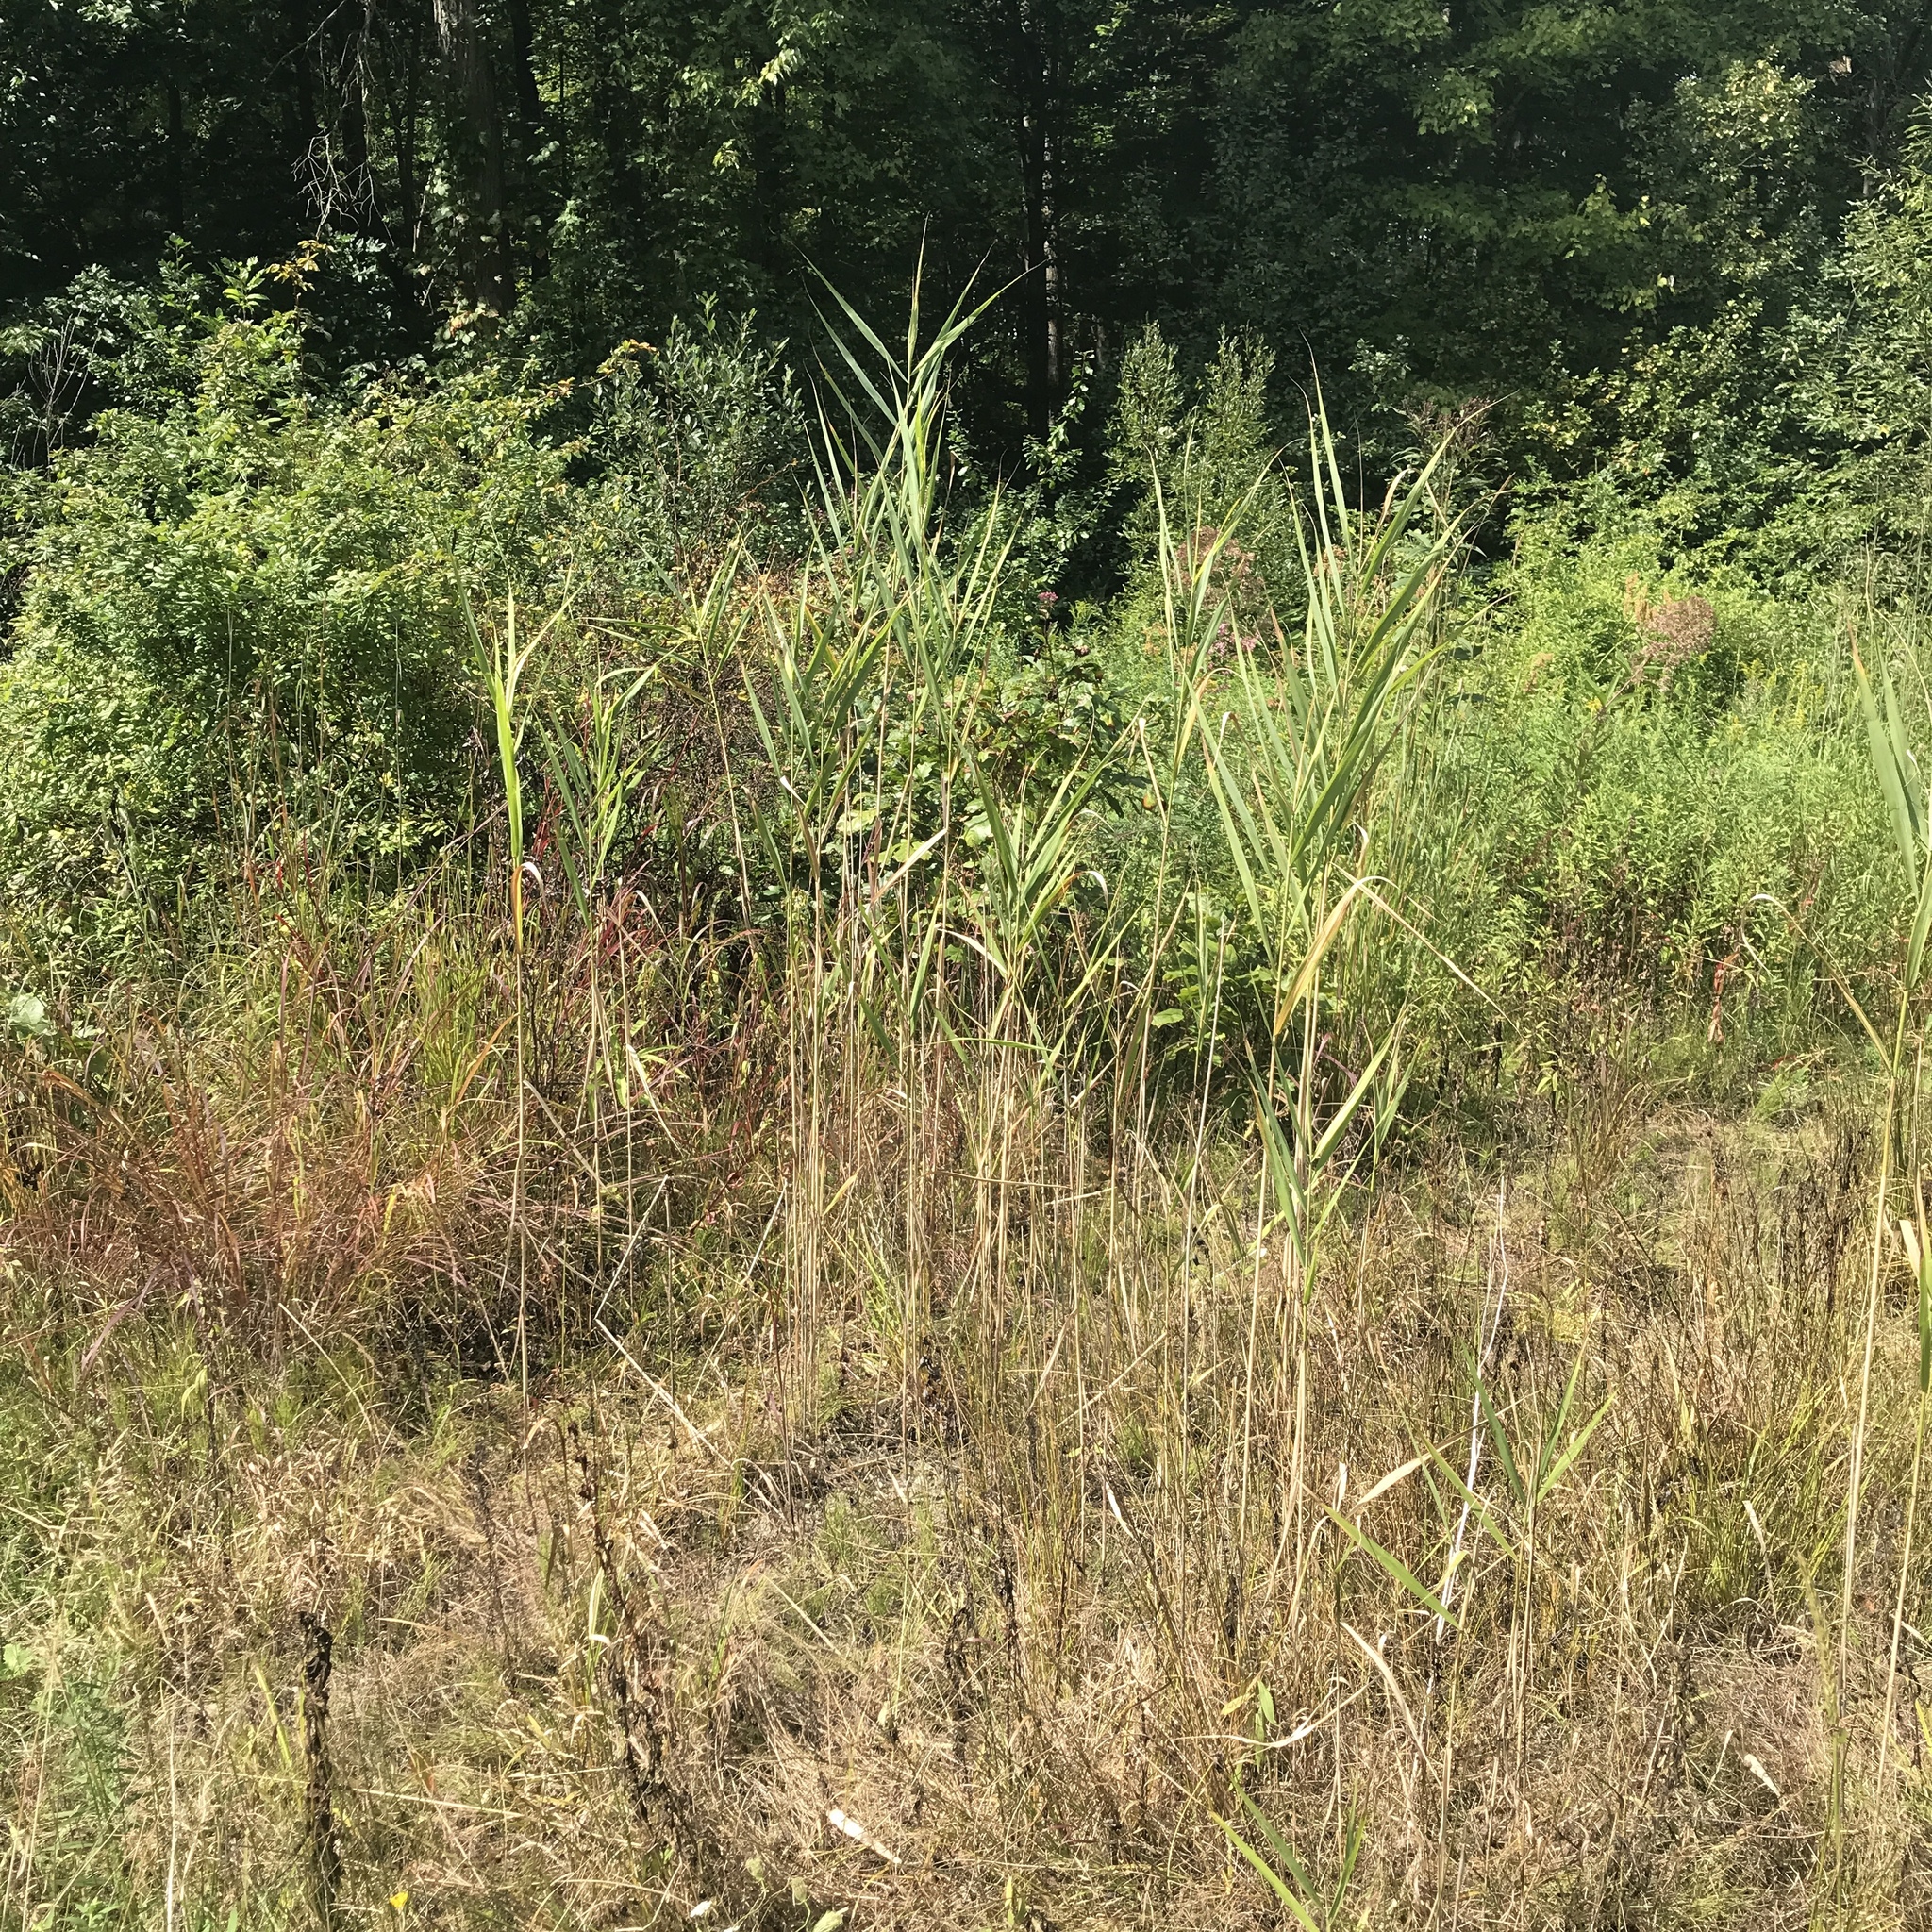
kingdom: Plantae
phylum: Tracheophyta
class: Liliopsida
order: Poales
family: Poaceae
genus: Phragmites
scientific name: Phragmites australis
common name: Common reed
